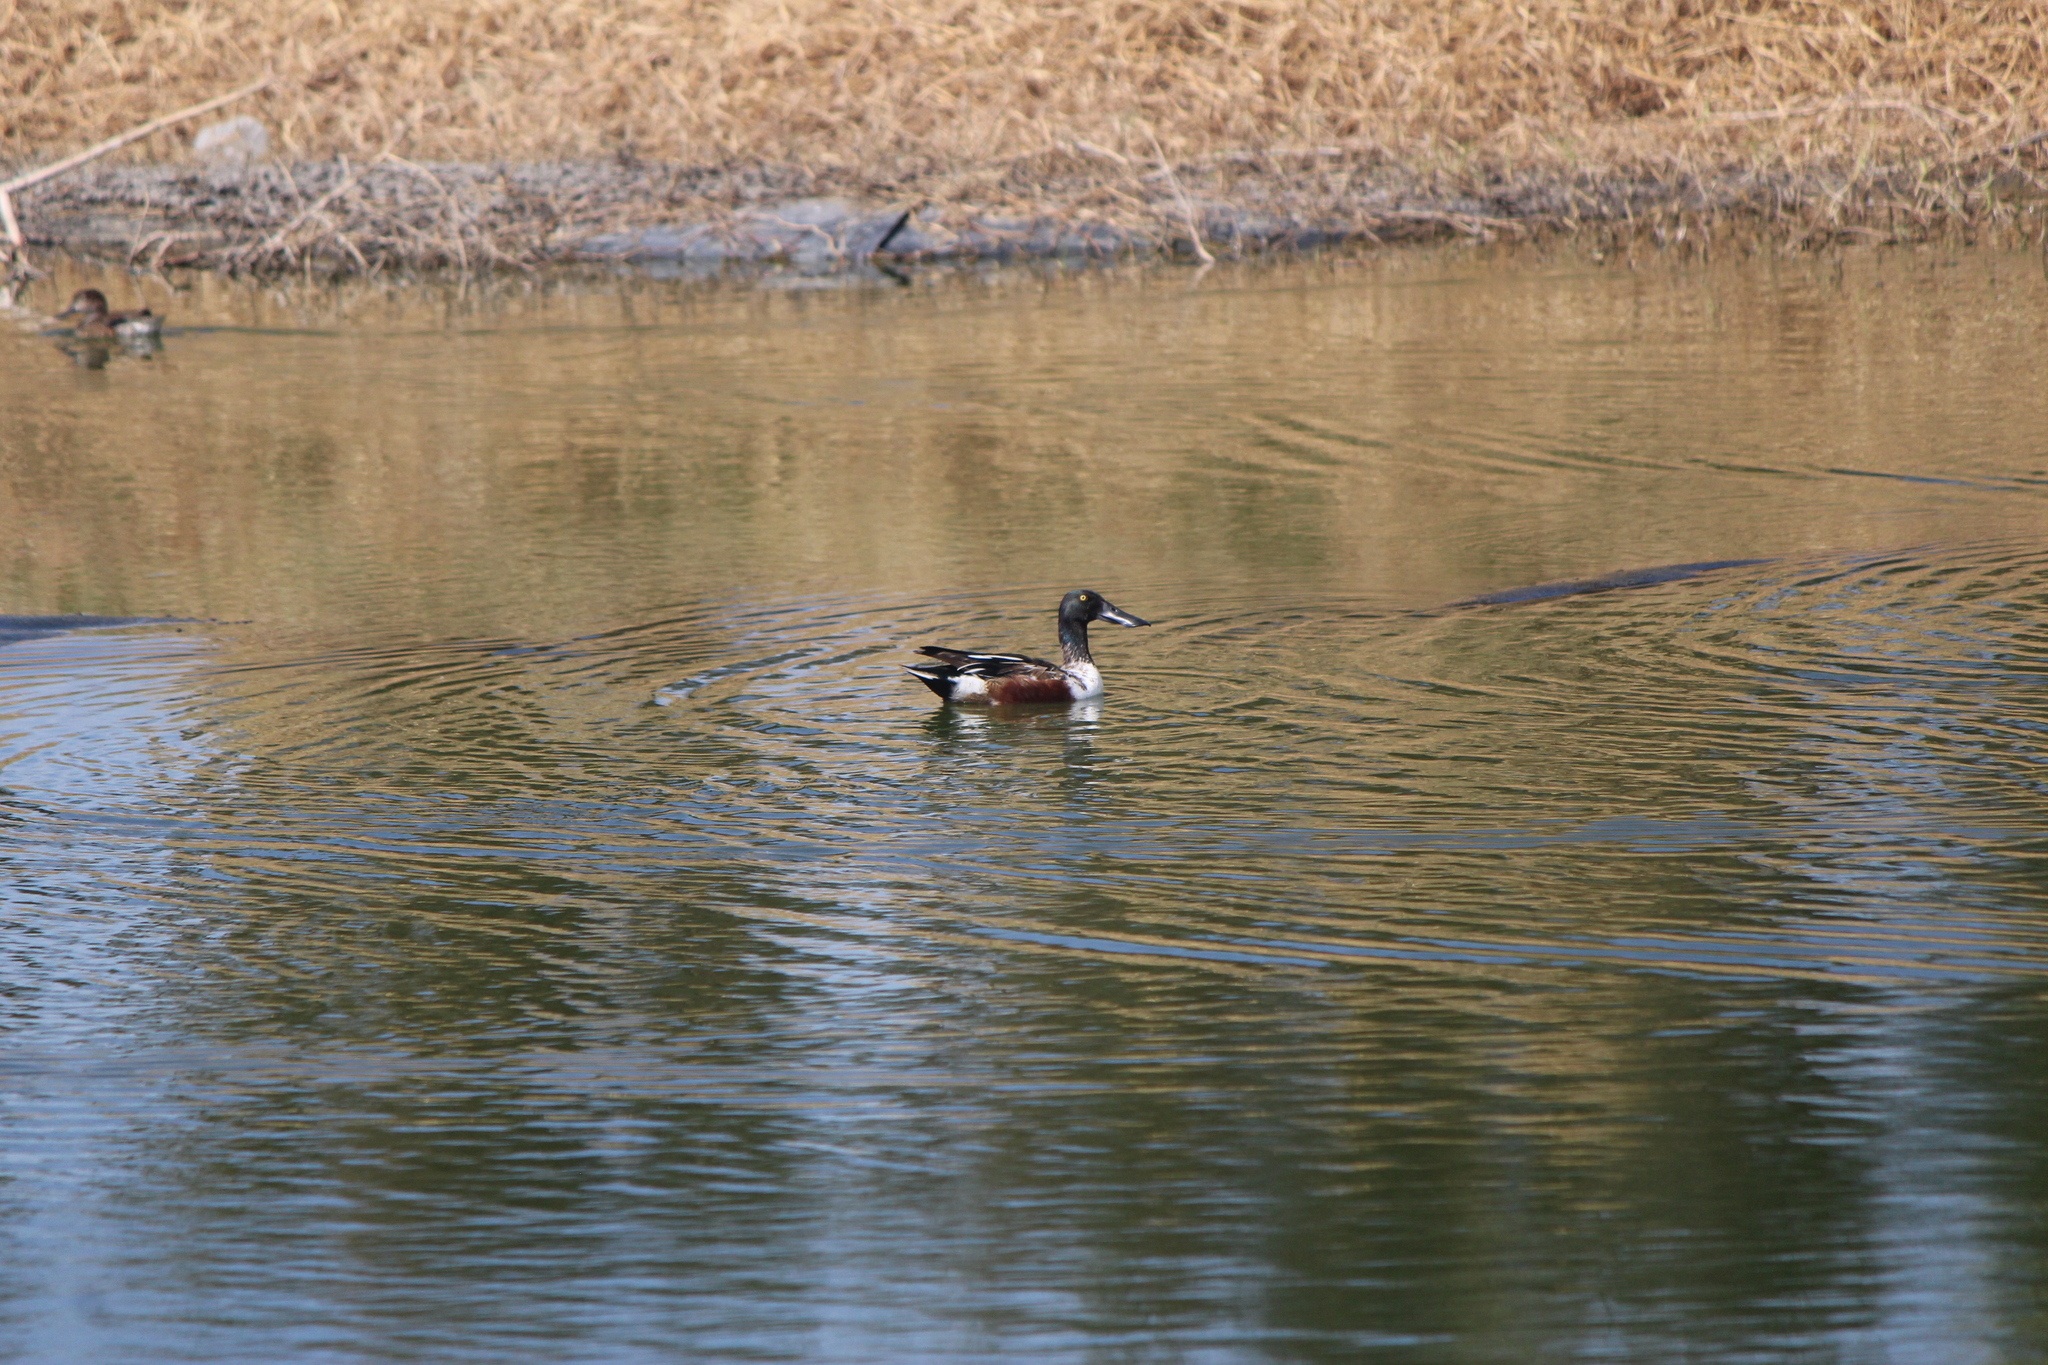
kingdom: Animalia
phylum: Chordata
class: Aves
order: Anseriformes
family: Anatidae
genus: Spatula
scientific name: Spatula clypeata
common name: Northern shoveler
